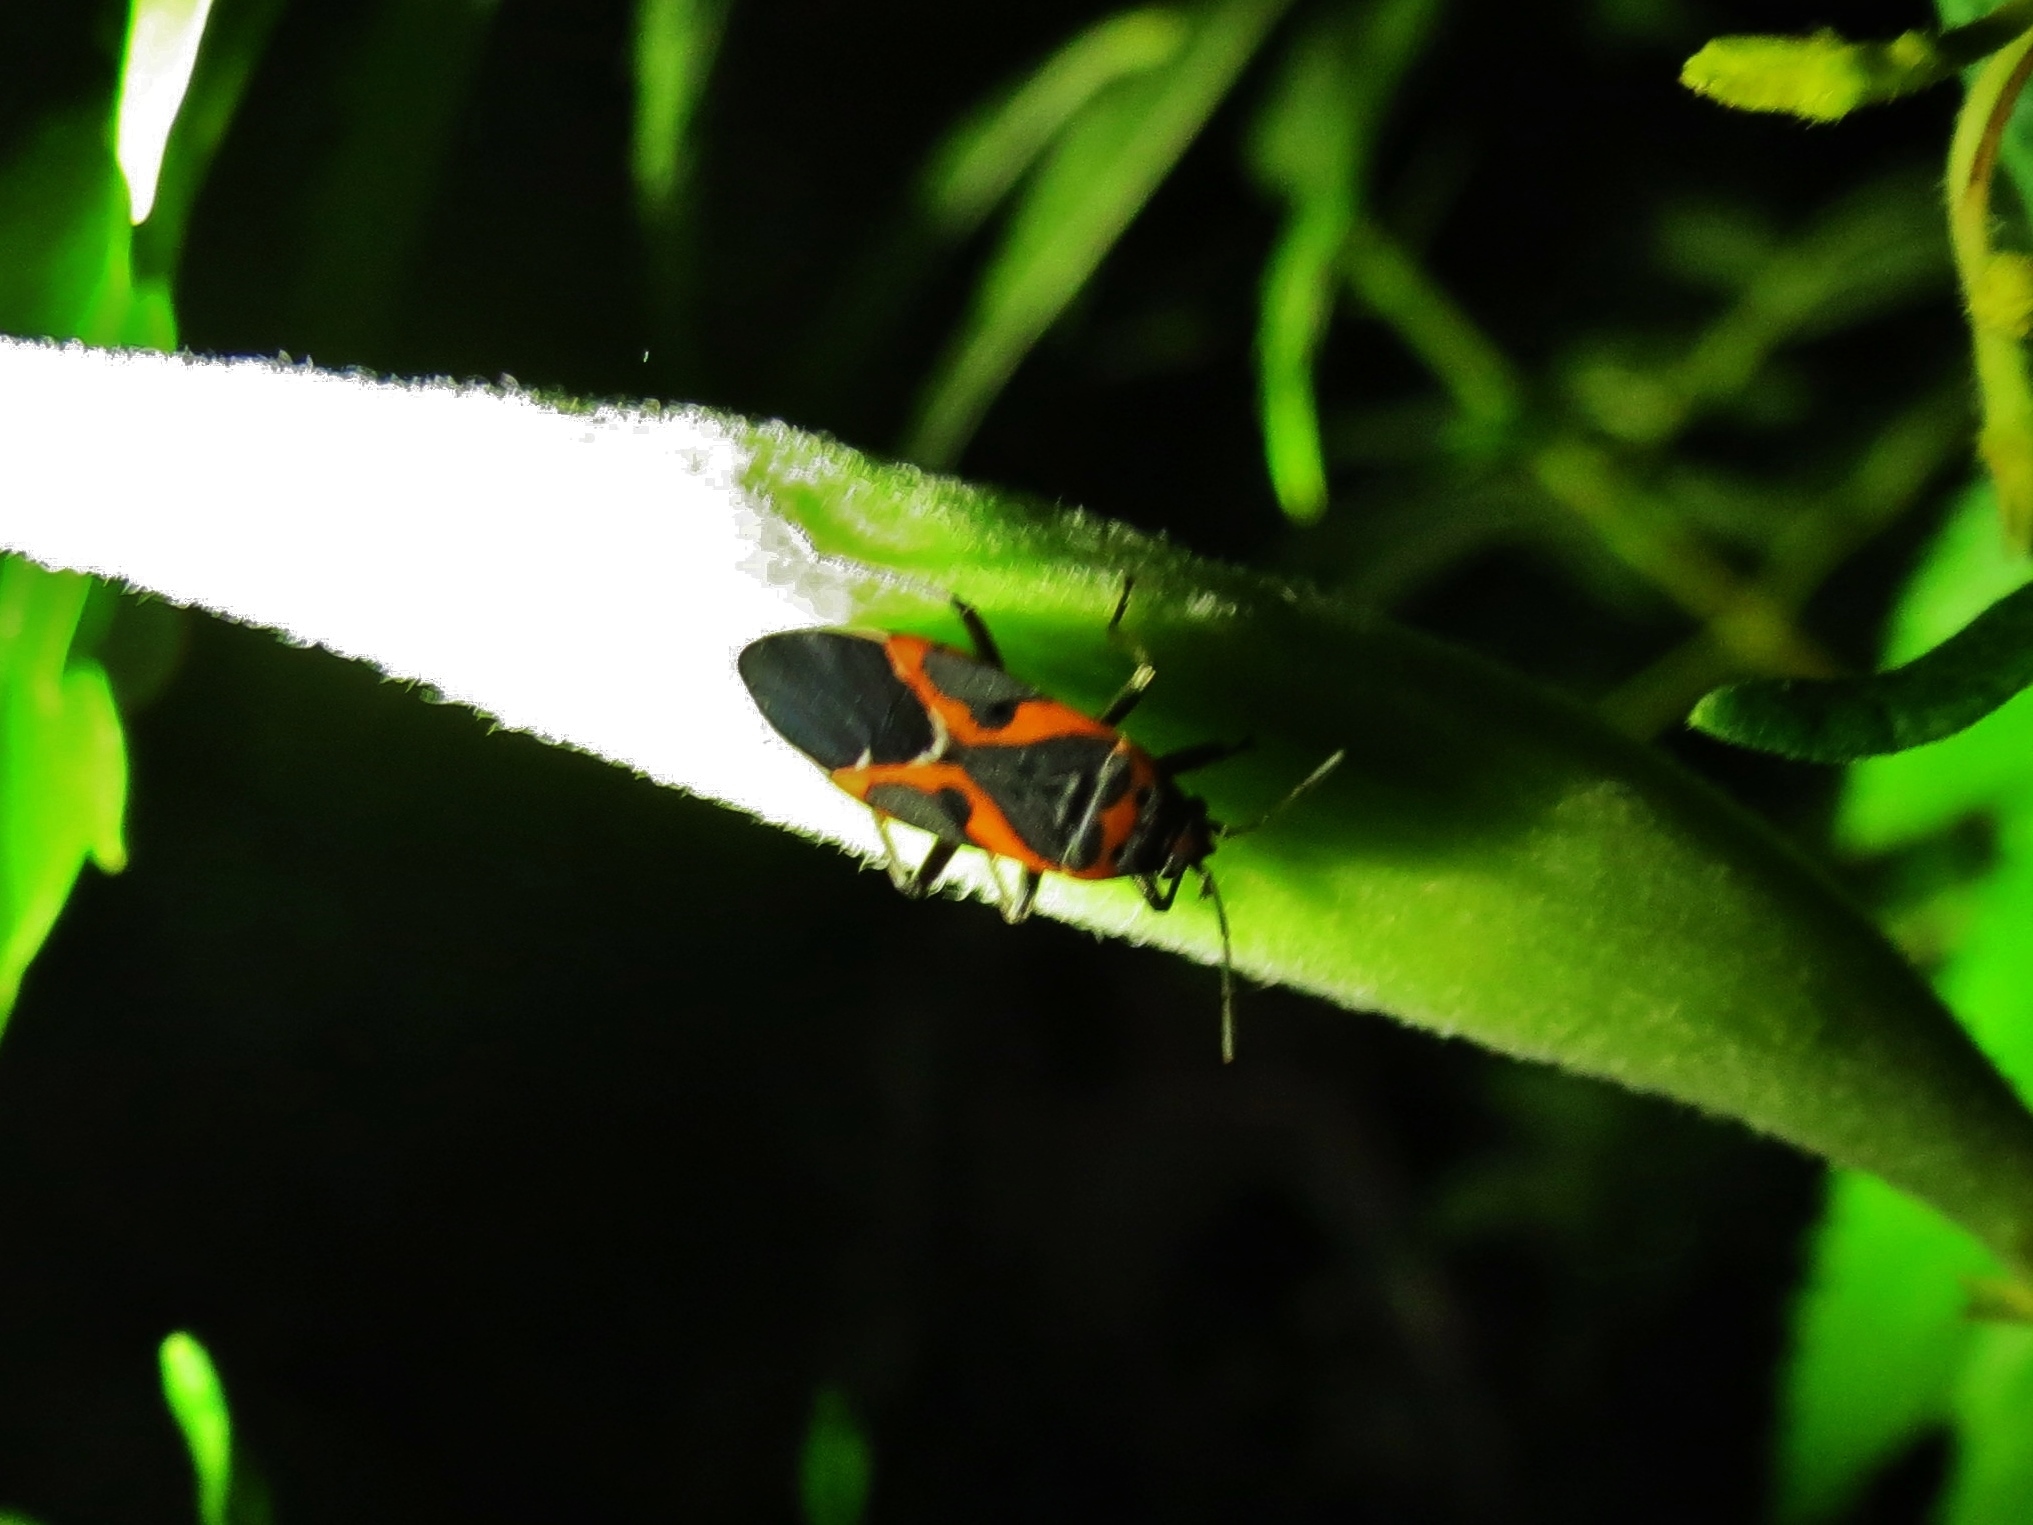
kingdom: Animalia
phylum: Arthropoda
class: Insecta
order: Hemiptera
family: Lygaeidae
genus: Lygaeus
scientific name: Lygaeus kalmii
